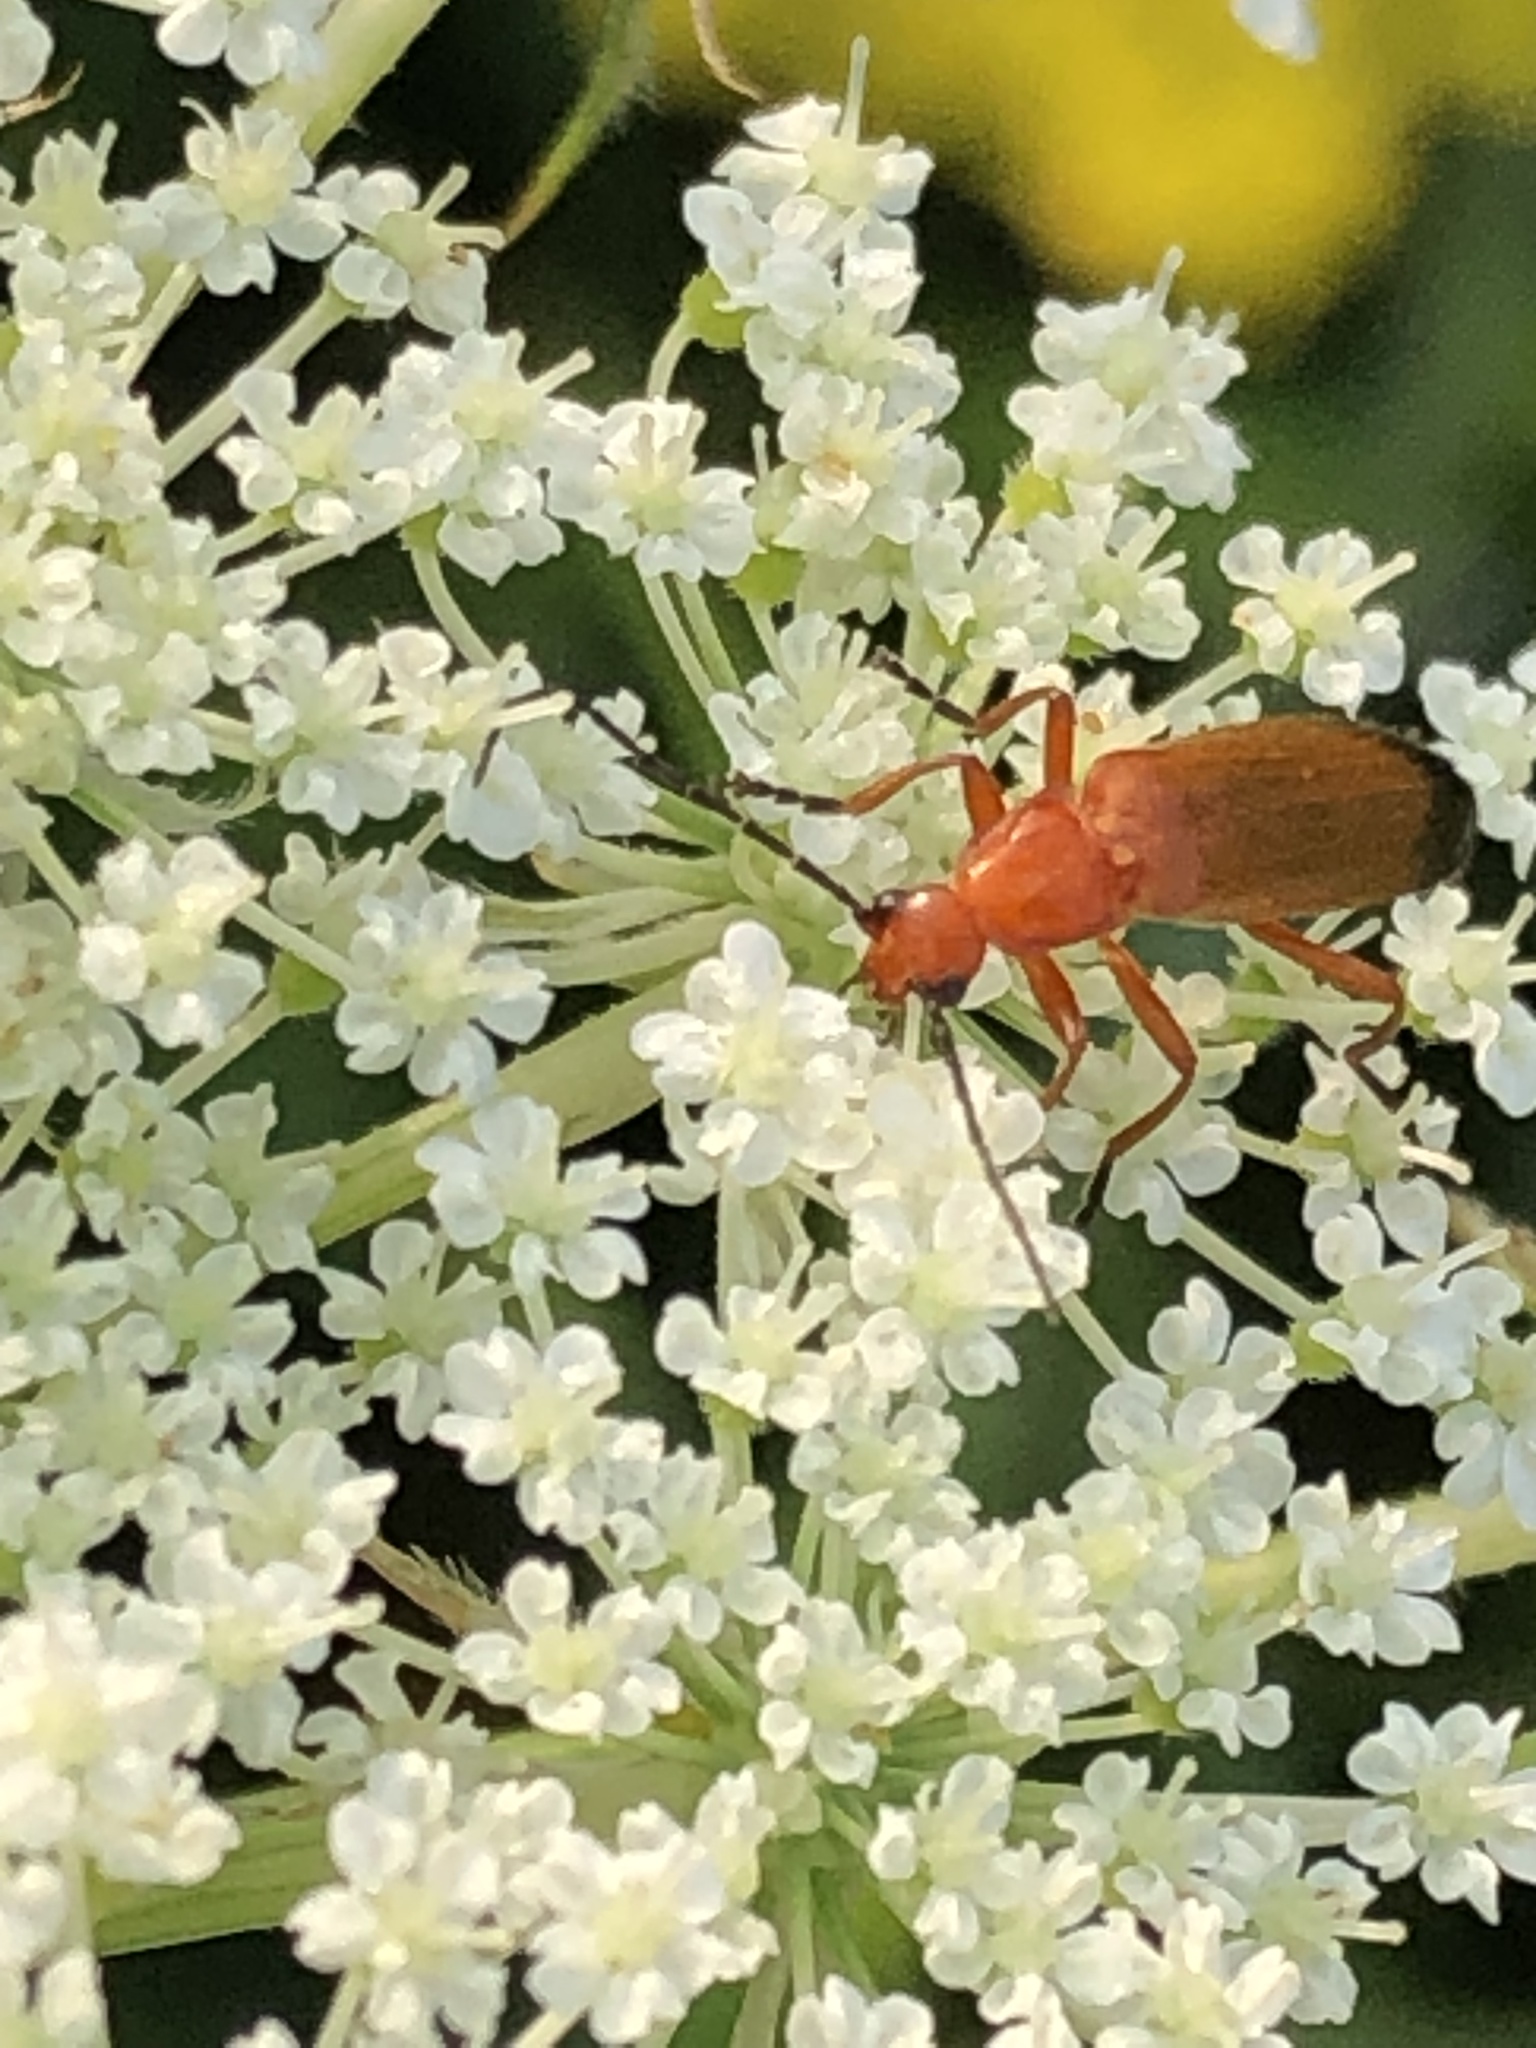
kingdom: Animalia
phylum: Arthropoda
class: Insecta
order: Coleoptera
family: Cantharidae
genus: Rhagonycha
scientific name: Rhagonycha fulva
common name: Common red soldier beetle
